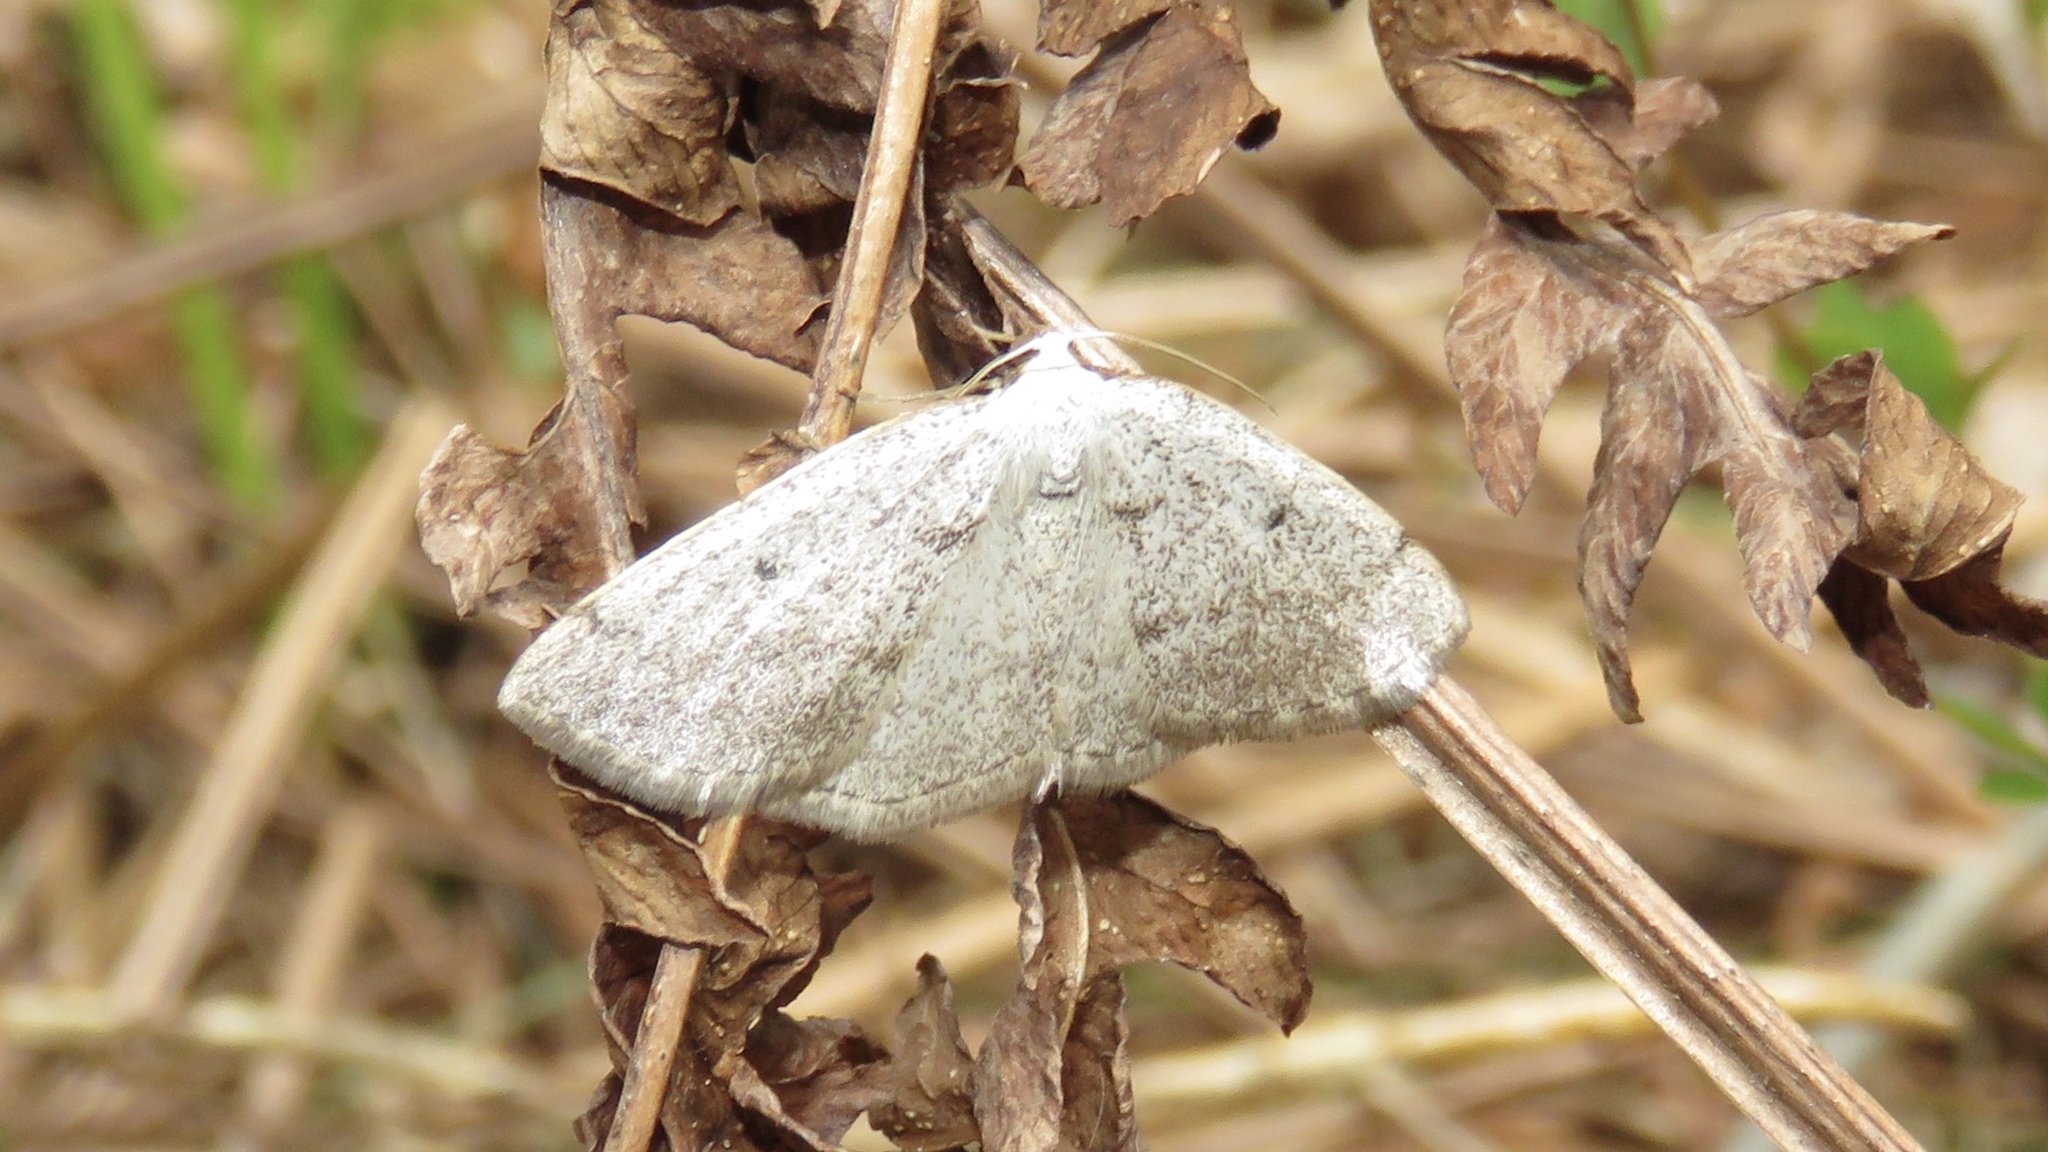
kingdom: Animalia
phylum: Arthropoda
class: Insecta
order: Lepidoptera
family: Geometridae
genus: Lomographa
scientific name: Lomographa glomeraria
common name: Gray spring moth
